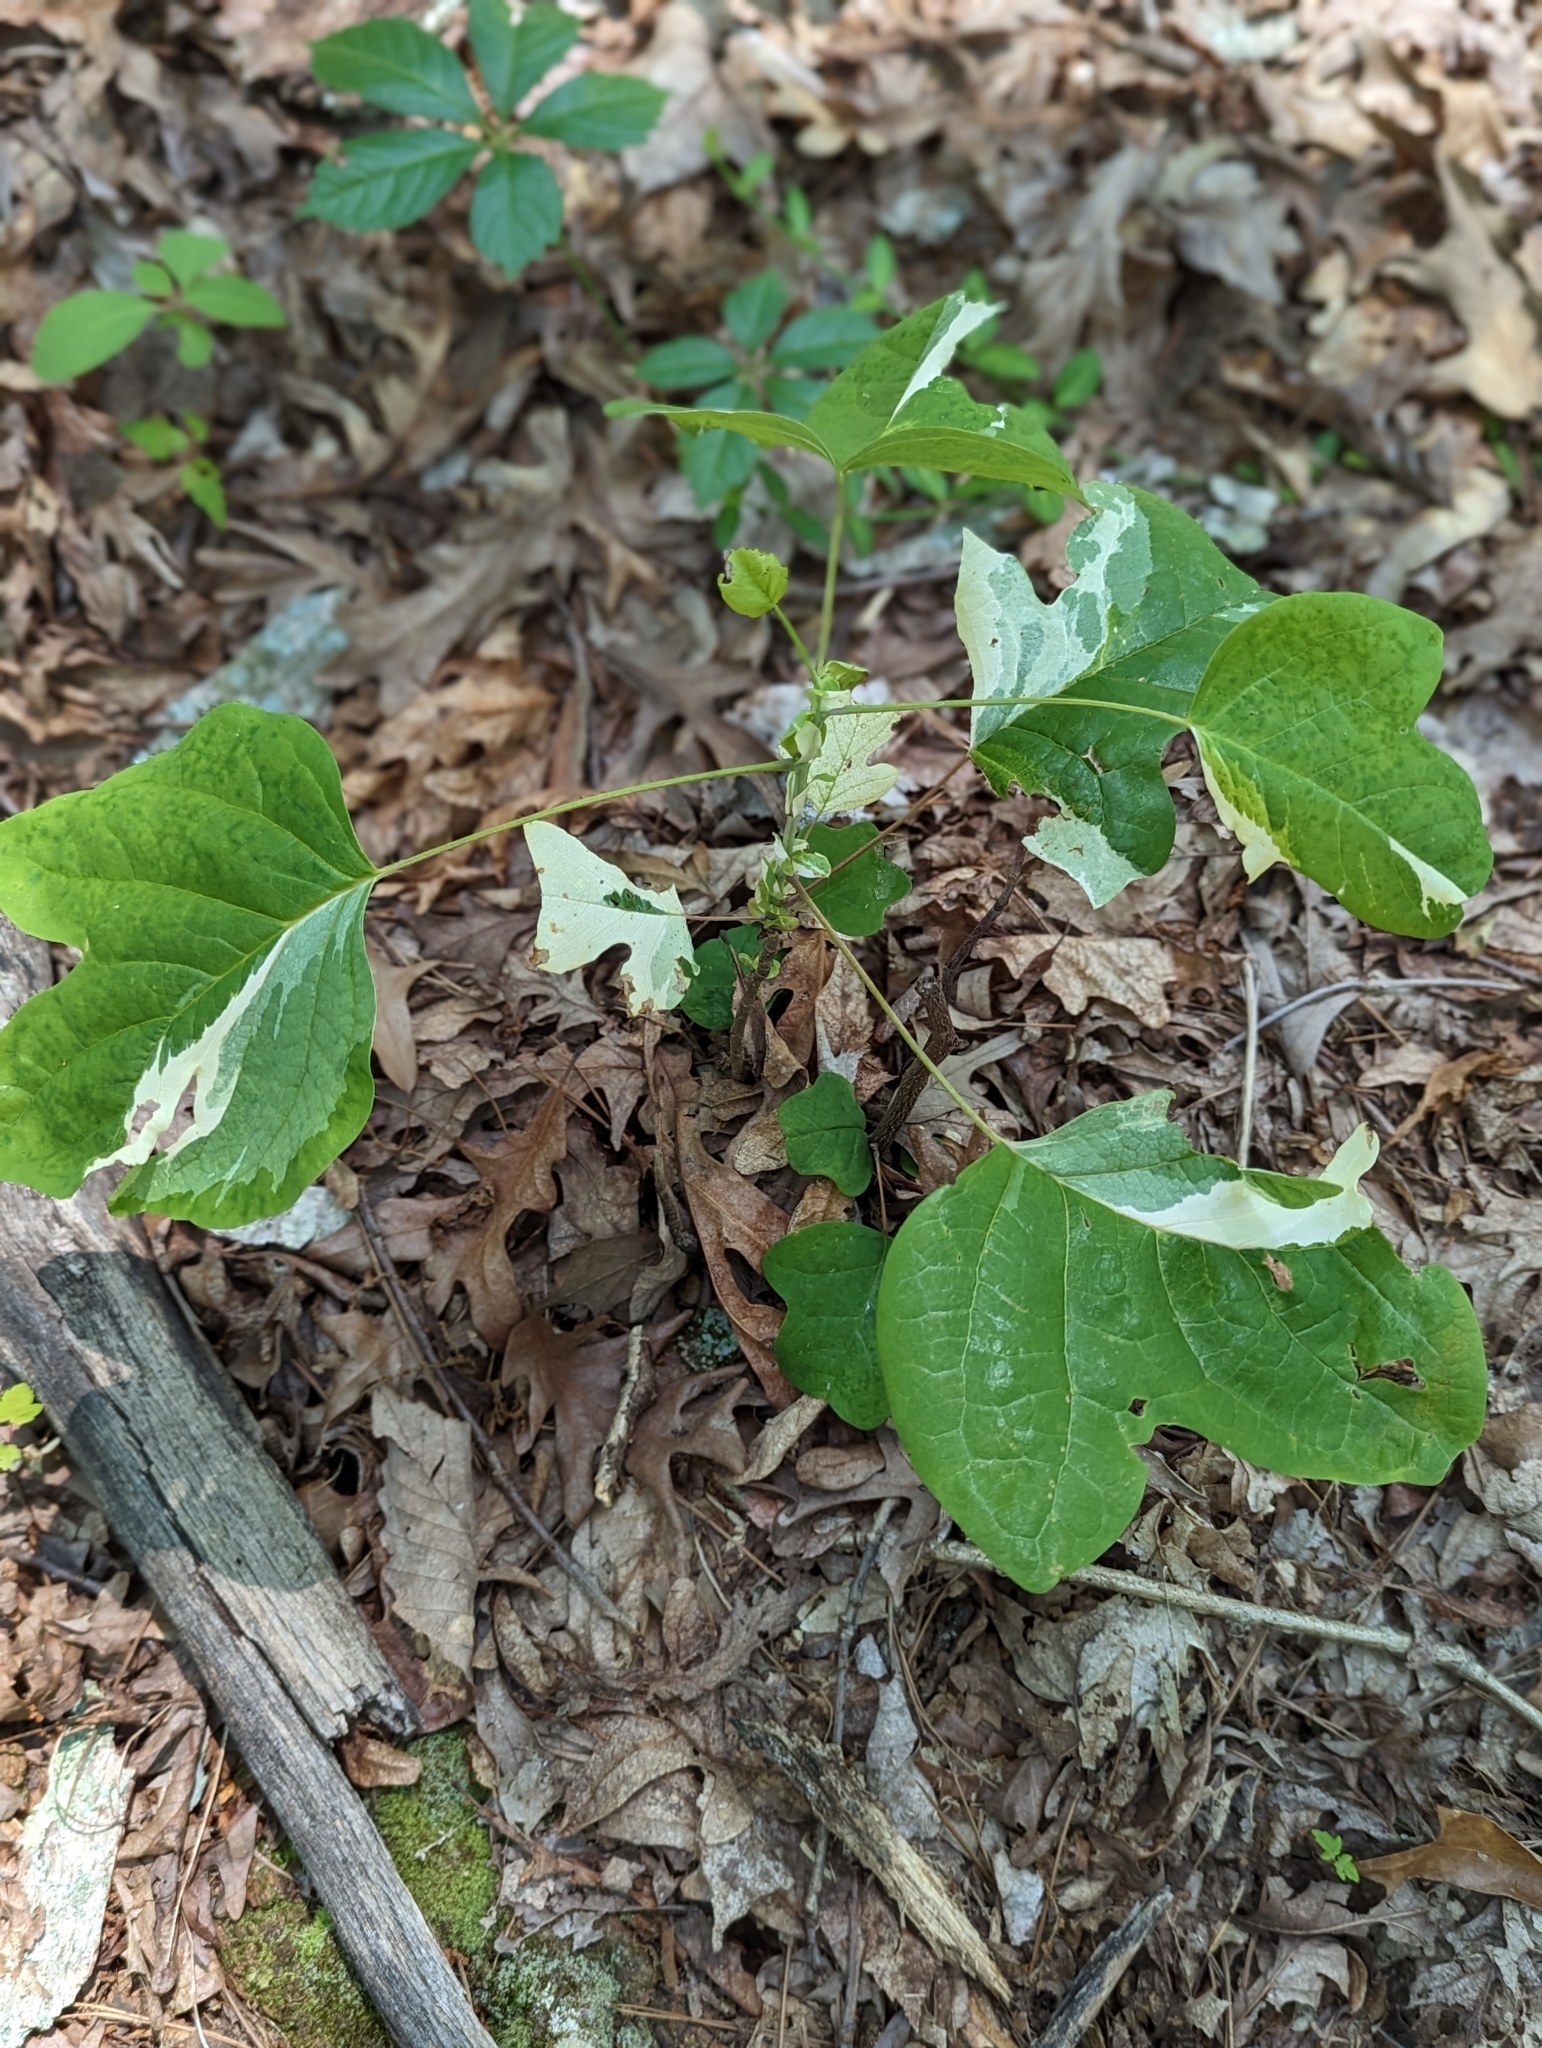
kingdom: Plantae
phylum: Tracheophyta
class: Magnoliopsida
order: Magnoliales
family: Magnoliaceae
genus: Liriodendron
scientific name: Liriodendron tulipifera
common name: Tulip tree
